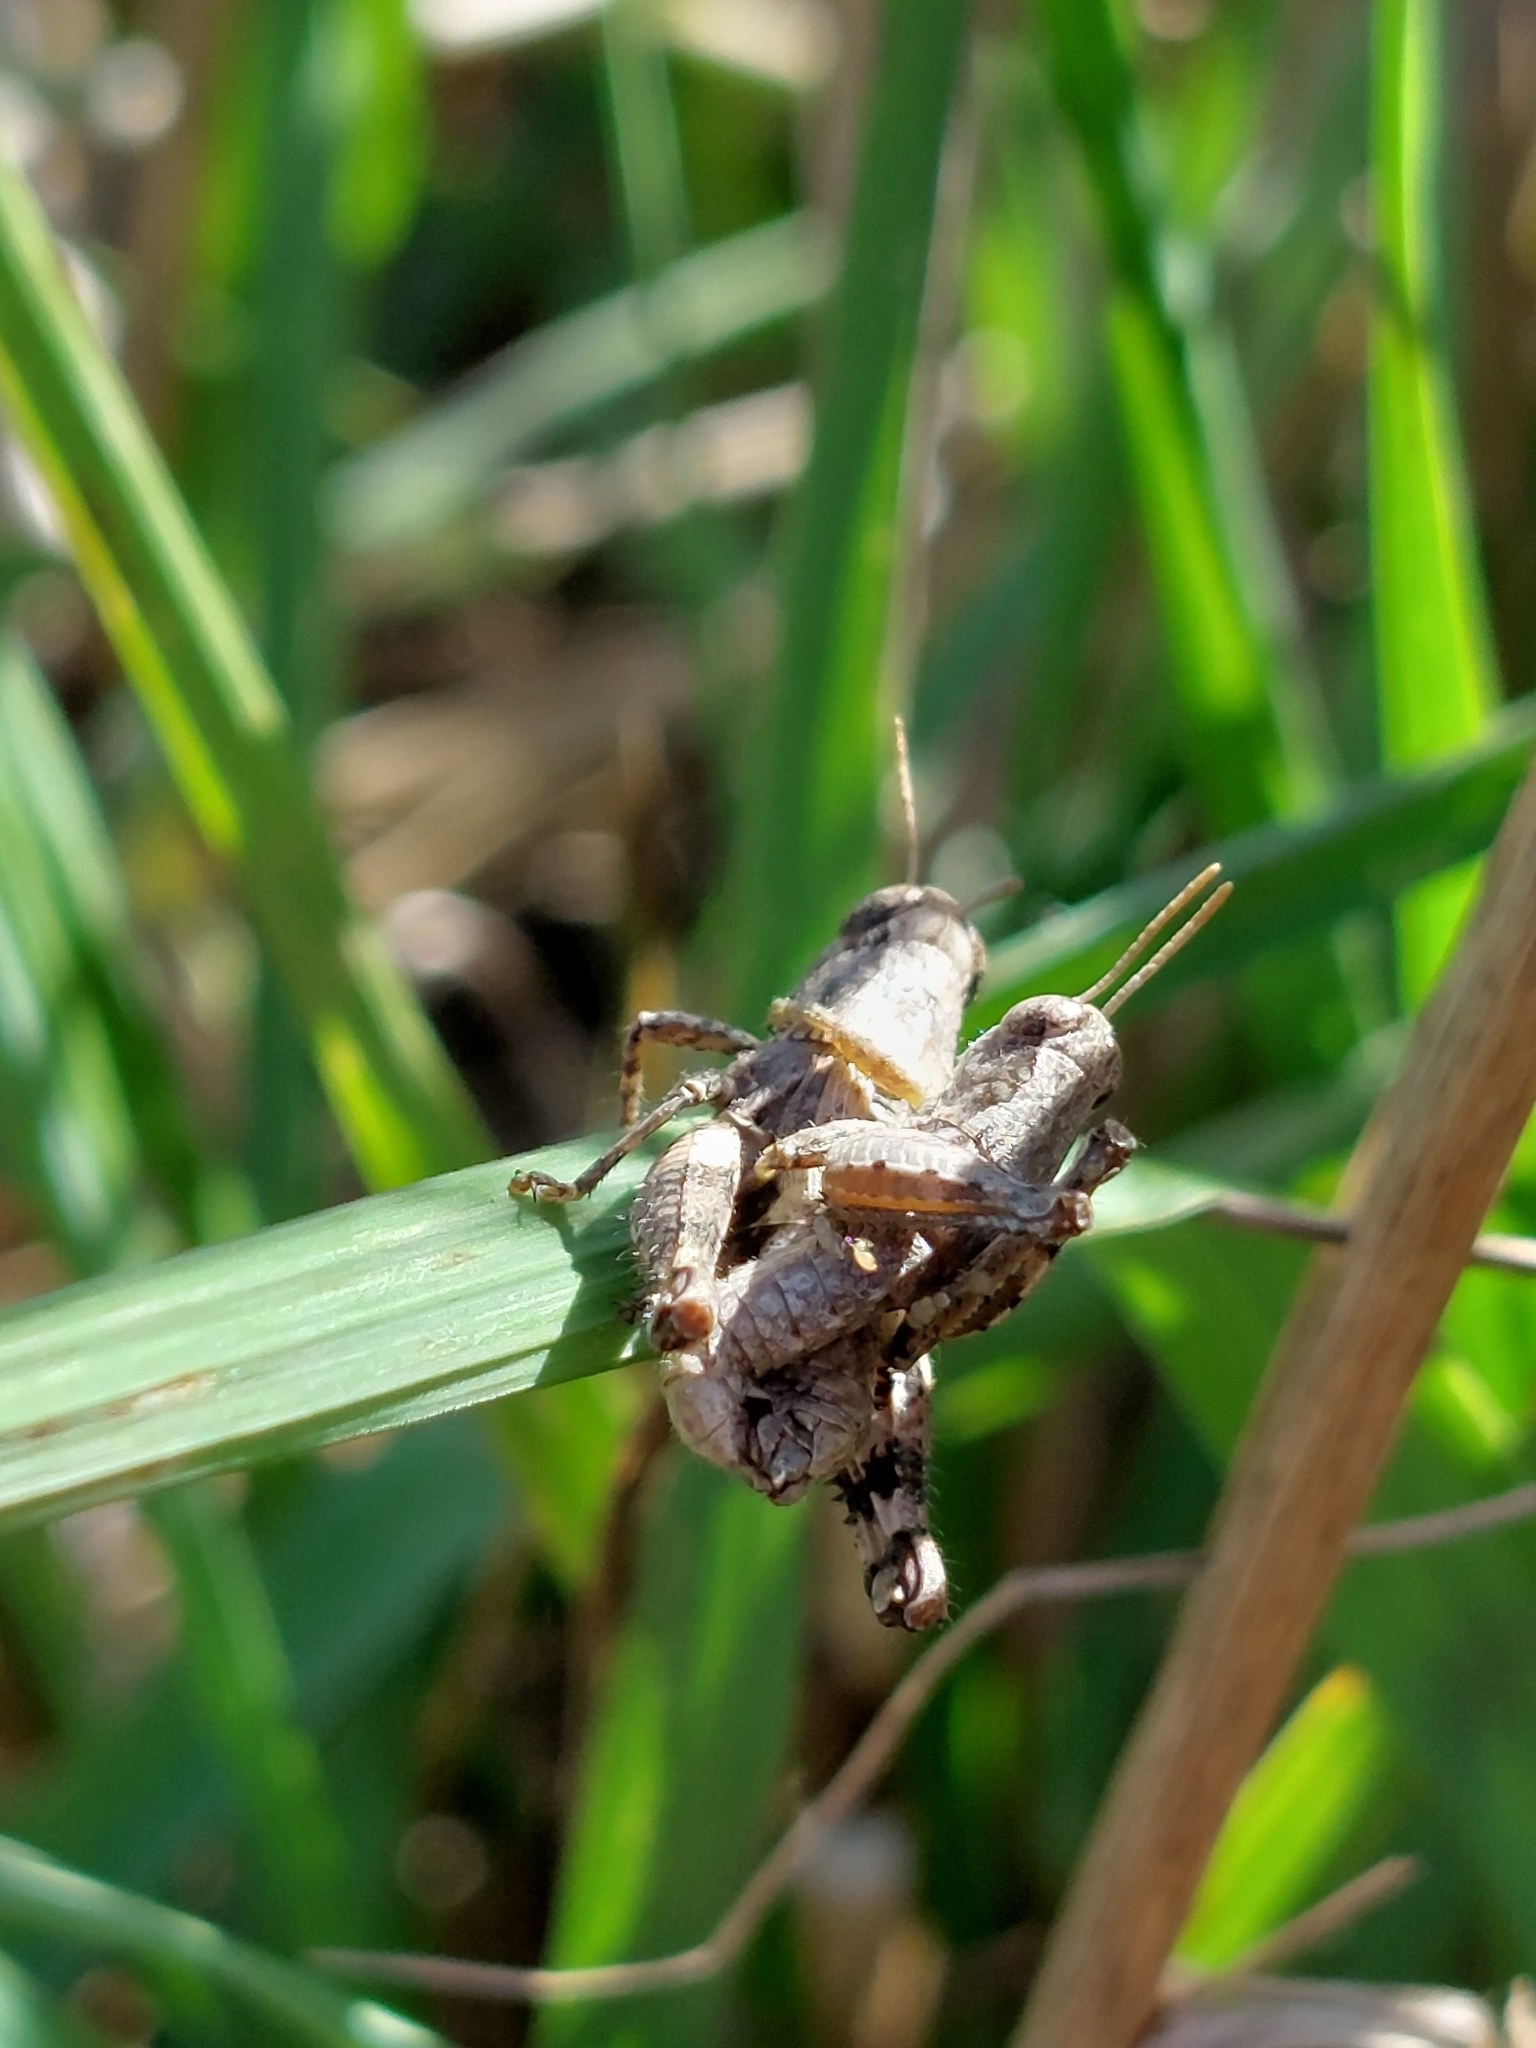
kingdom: Animalia
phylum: Arthropoda
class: Insecta
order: Orthoptera
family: Acrididae
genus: Pezotettix
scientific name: Pezotettix giornae
